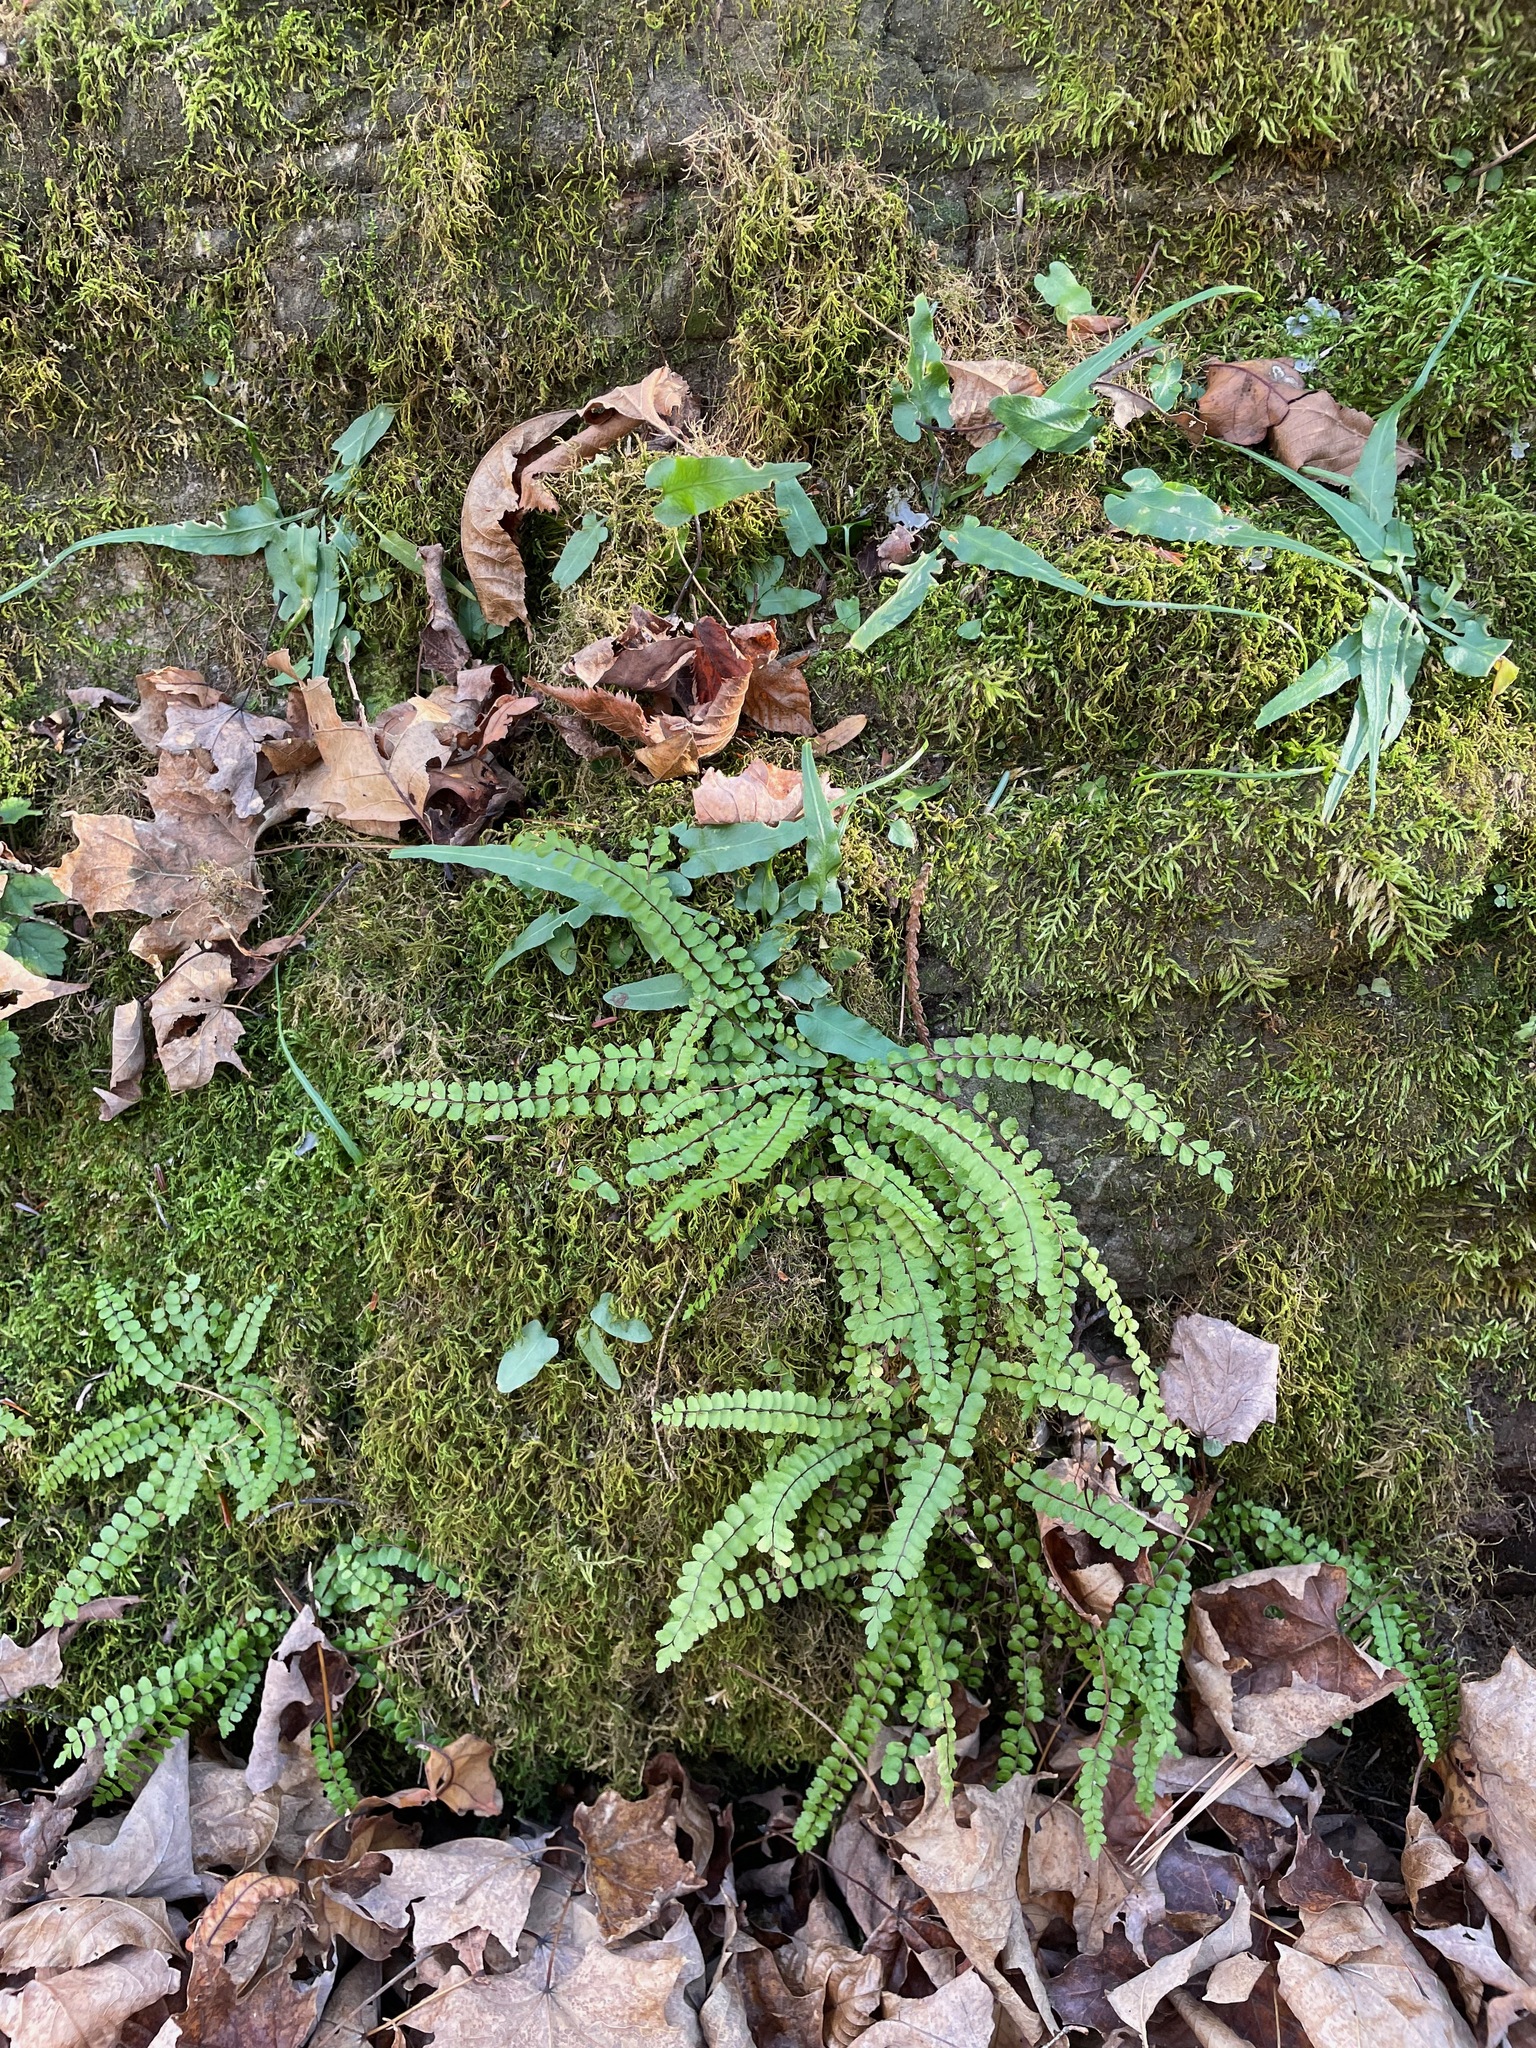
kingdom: Plantae
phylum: Tracheophyta
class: Polypodiopsida
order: Polypodiales
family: Aspleniaceae
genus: Asplenium
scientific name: Asplenium trichomanes
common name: Maidenhair spleenwort
